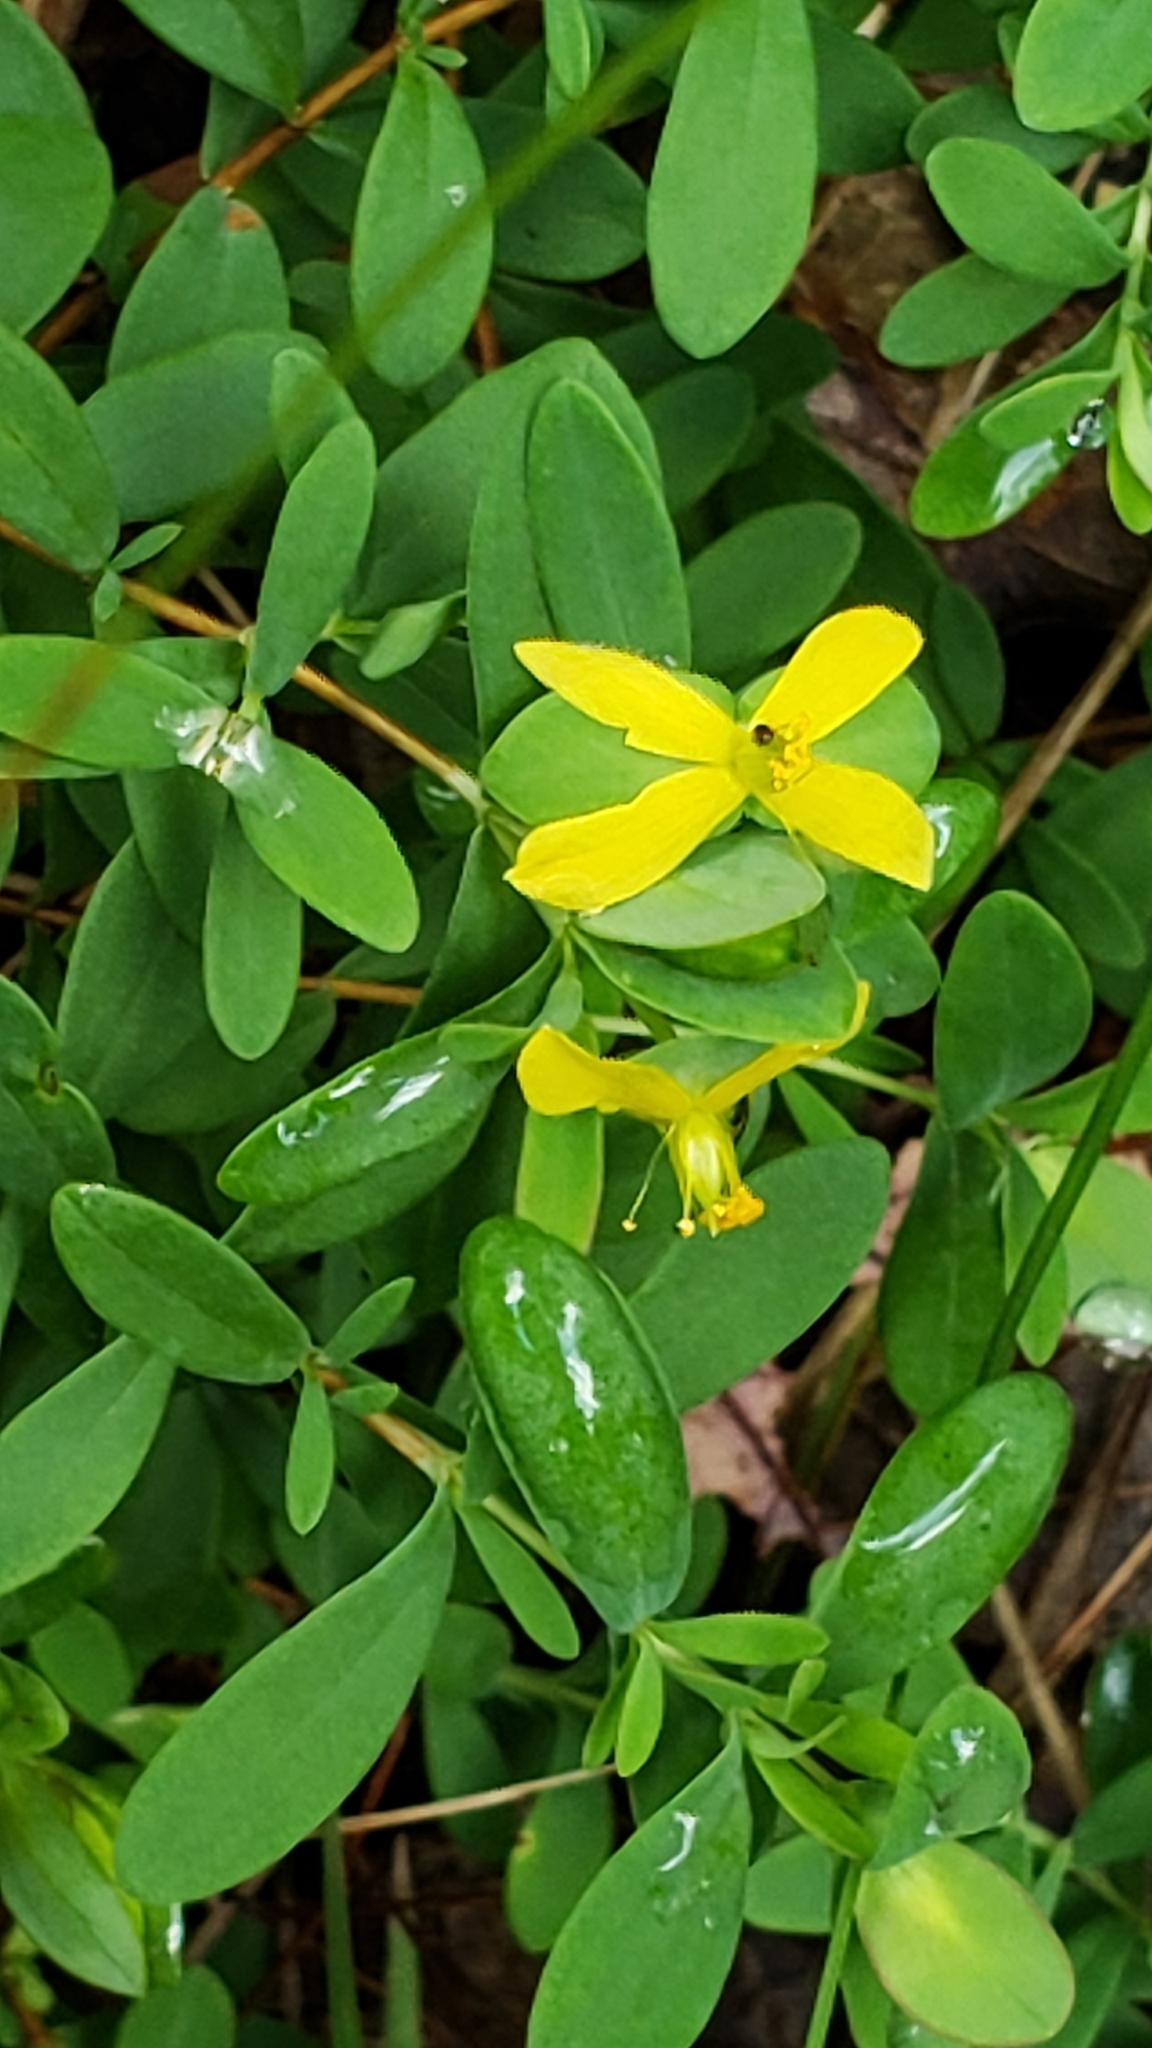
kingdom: Plantae
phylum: Tracheophyta
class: Magnoliopsida
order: Malpighiales
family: Hypericaceae
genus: Hypericum
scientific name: Hypericum hypericoides
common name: St. andrew's cross
